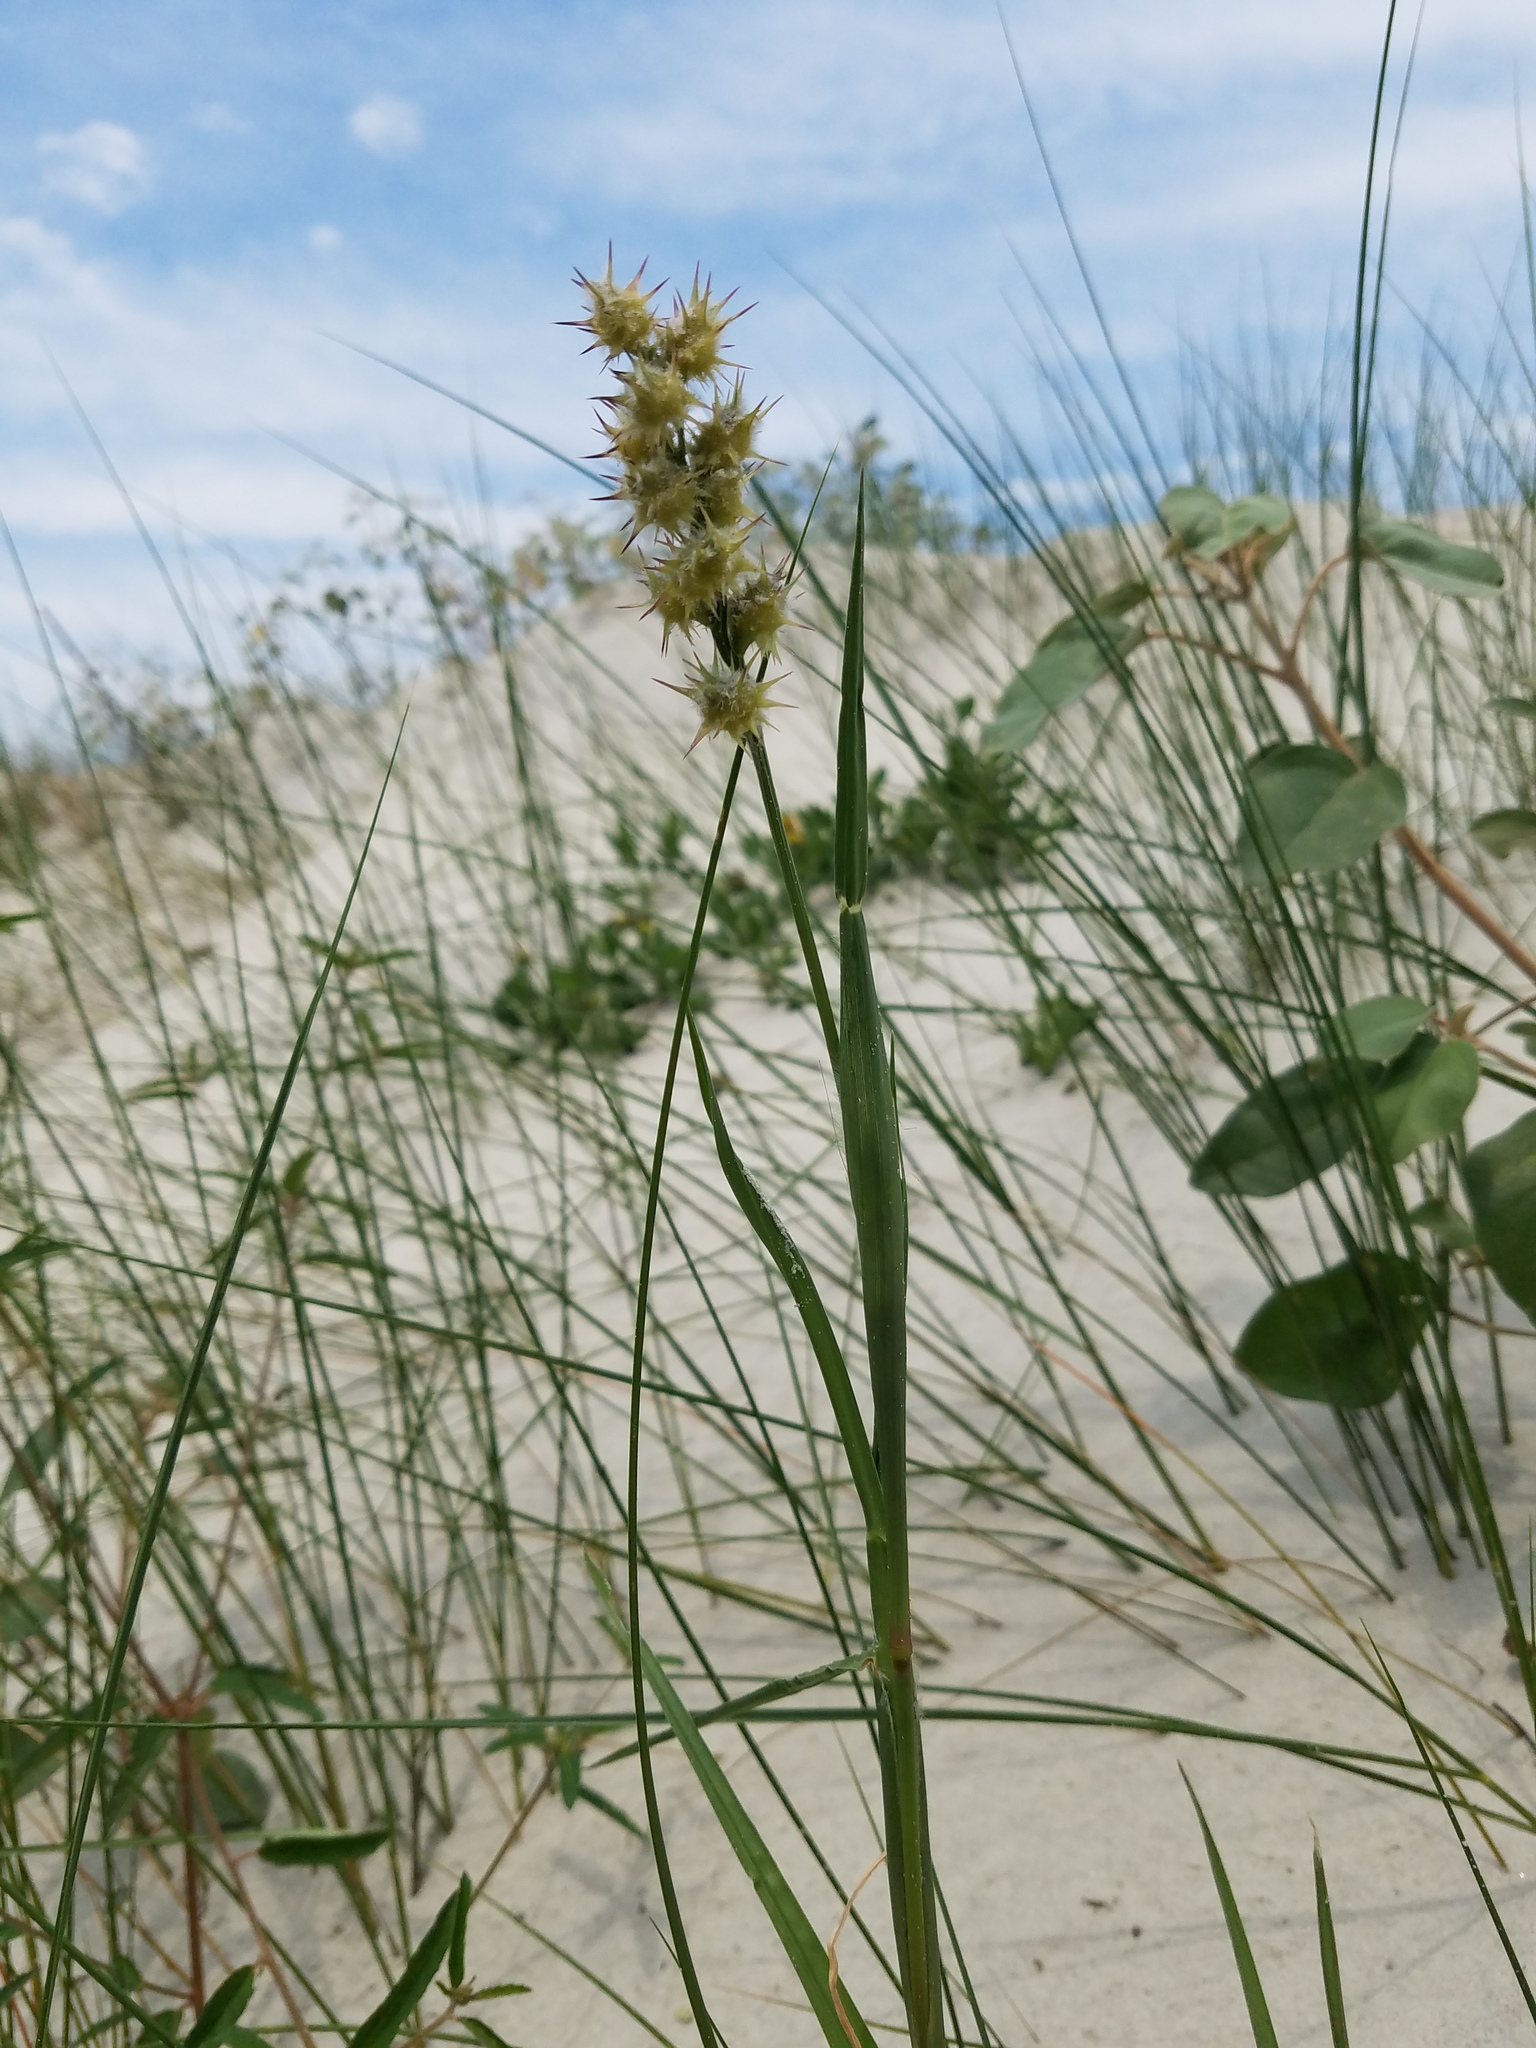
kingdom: Plantae
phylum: Tracheophyta
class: Liliopsida
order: Poales
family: Poaceae
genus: Cenchrus
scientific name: Cenchrus tribuloides
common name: Dune sandbur
